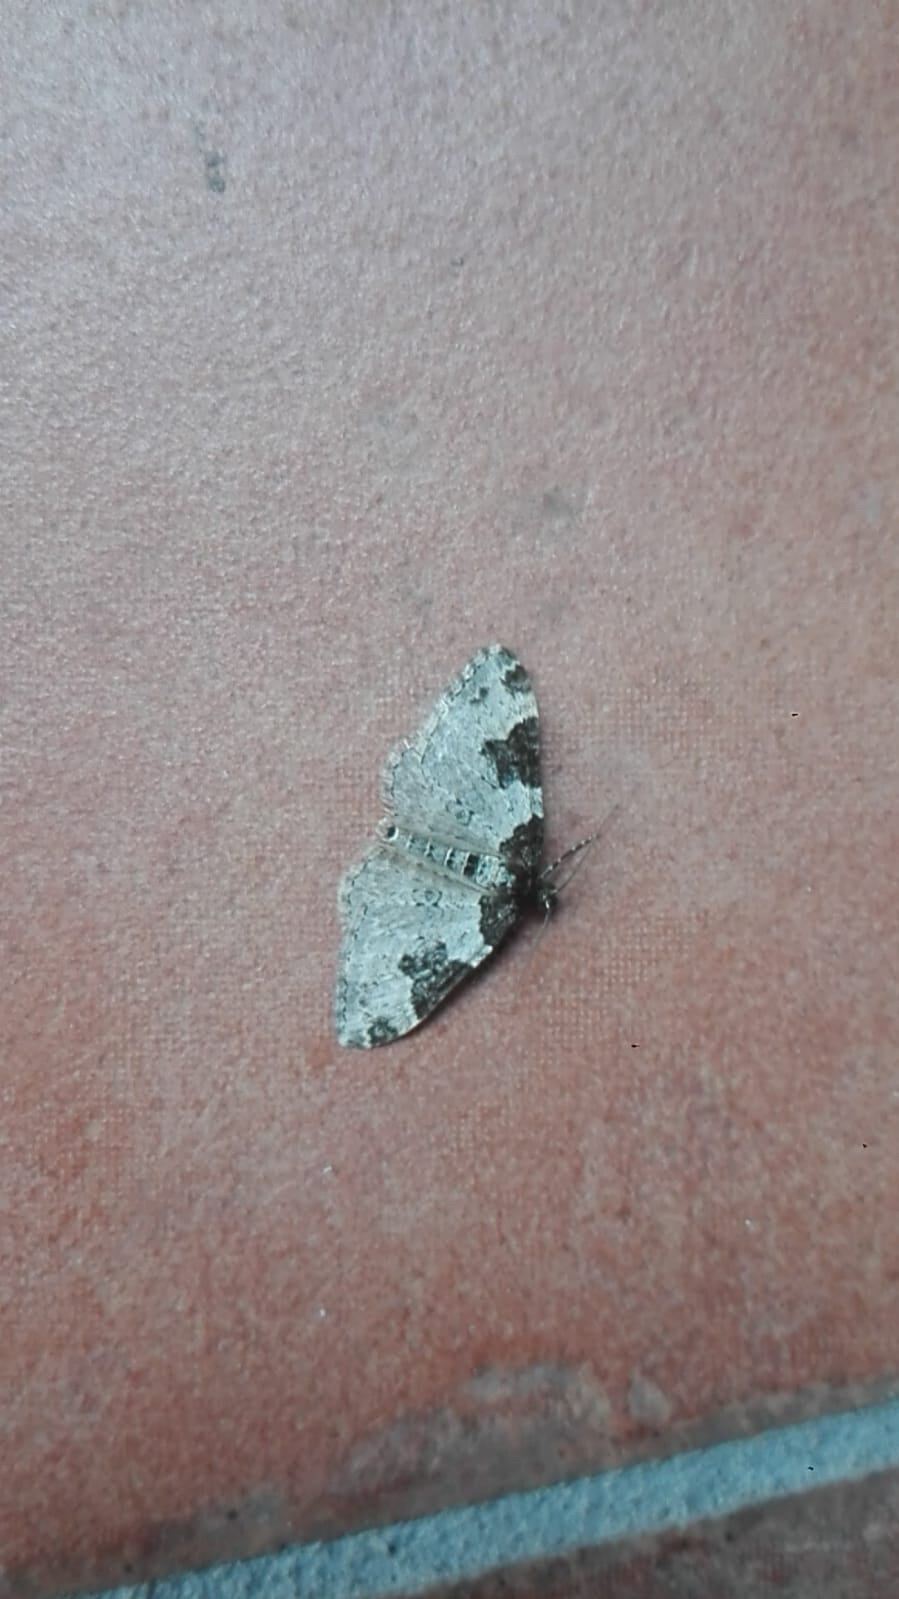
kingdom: Animalia
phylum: Arthropoda
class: Insecta
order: Lepidoptera
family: Geometridae
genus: Xanthorhoe
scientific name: Xanthorhoe fluctuata
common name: Garden carpet
